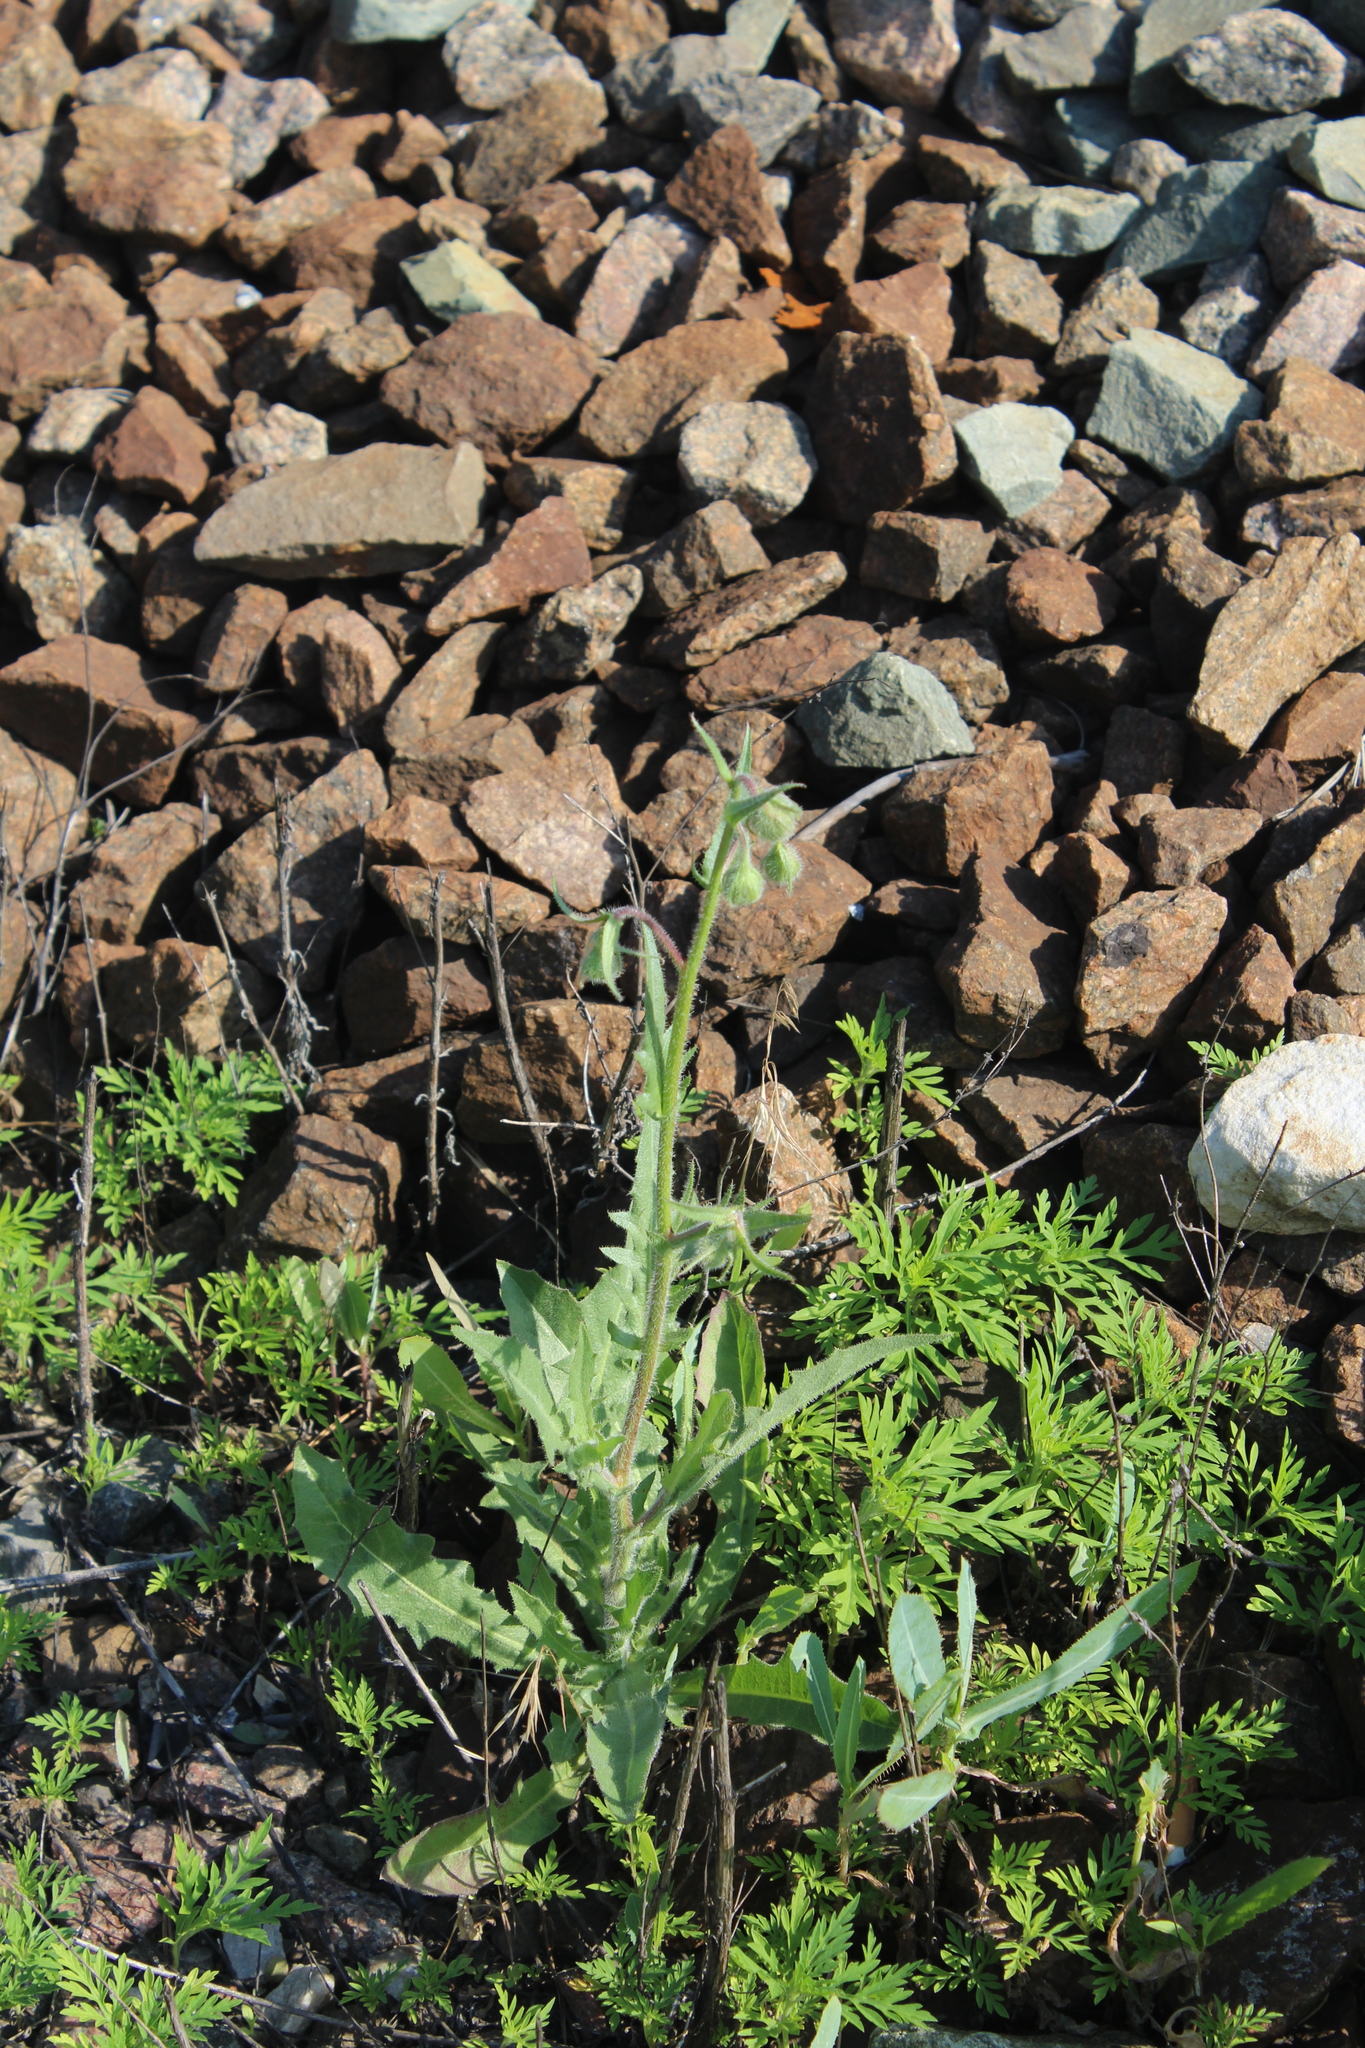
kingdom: Plantae
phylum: Tracheophyta
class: Magnoliopsida
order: Asterales
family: Asteraceae
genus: Crepis
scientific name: Crepis foetida
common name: Stinking hawk's-beard
